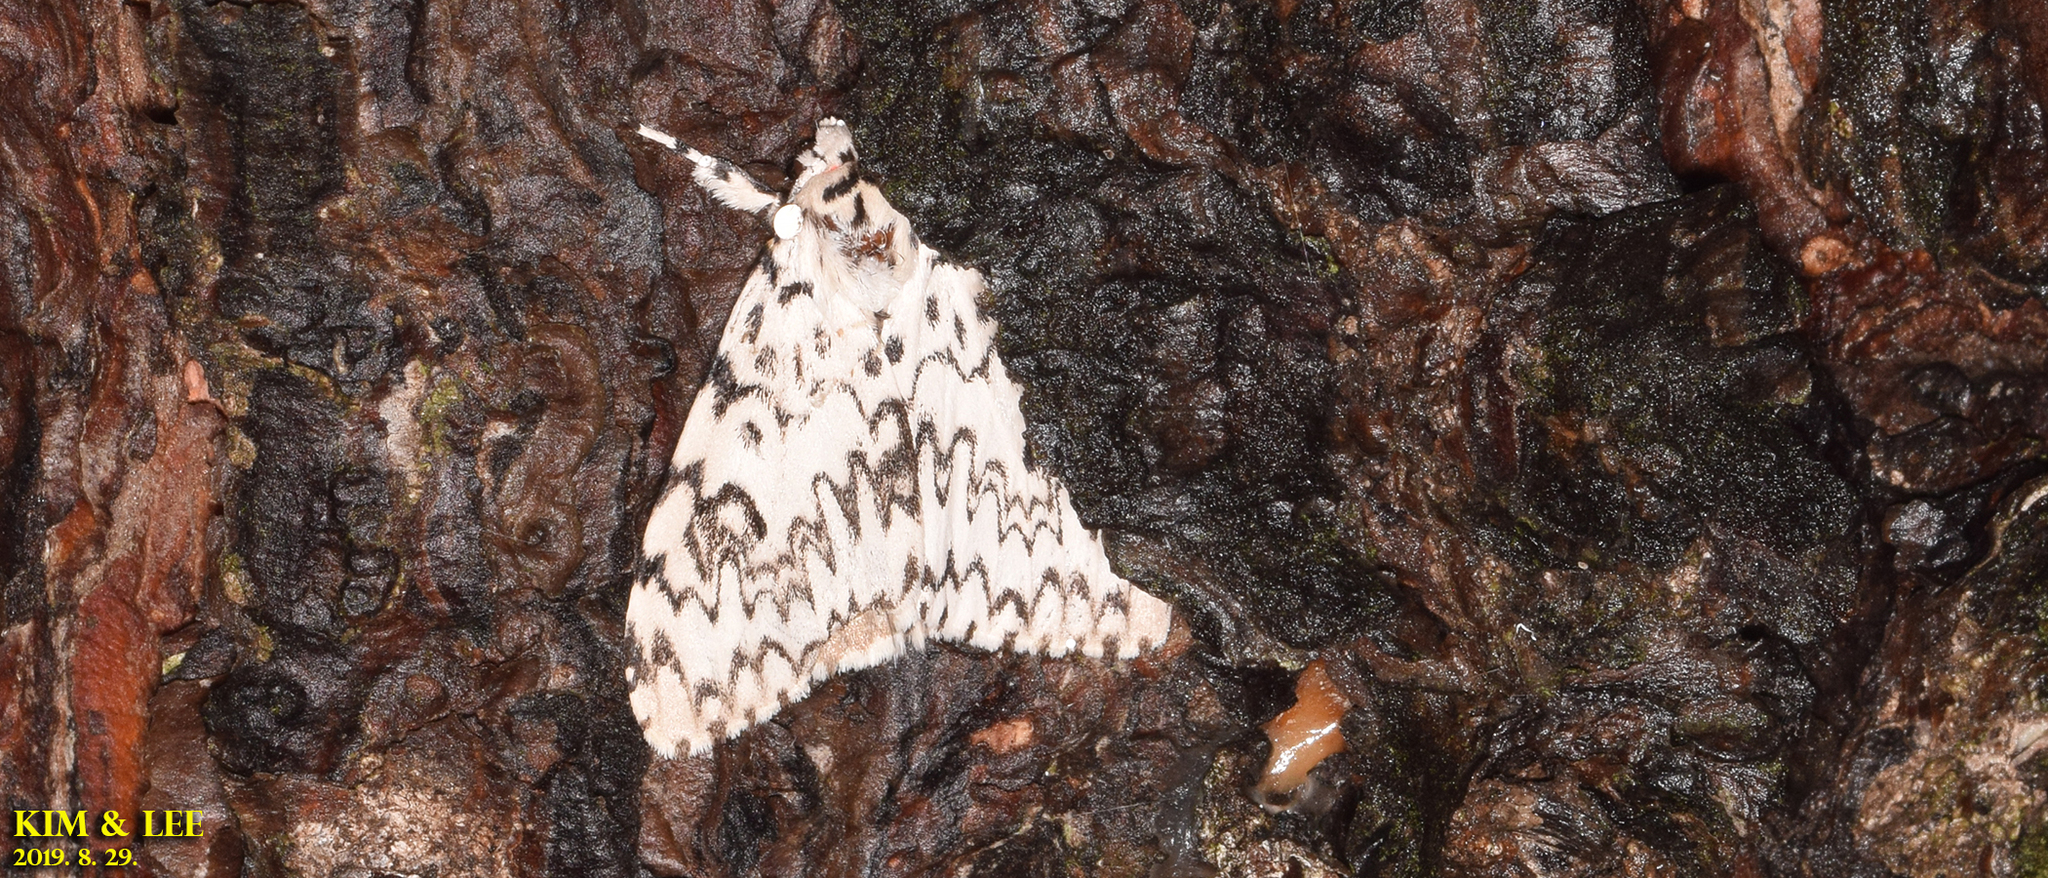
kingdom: Animalia
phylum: Arthropoda
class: Insecta
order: Lepidoptera
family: Erebidae
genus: Lymantria
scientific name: Lymantria monacha
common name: Black arches
